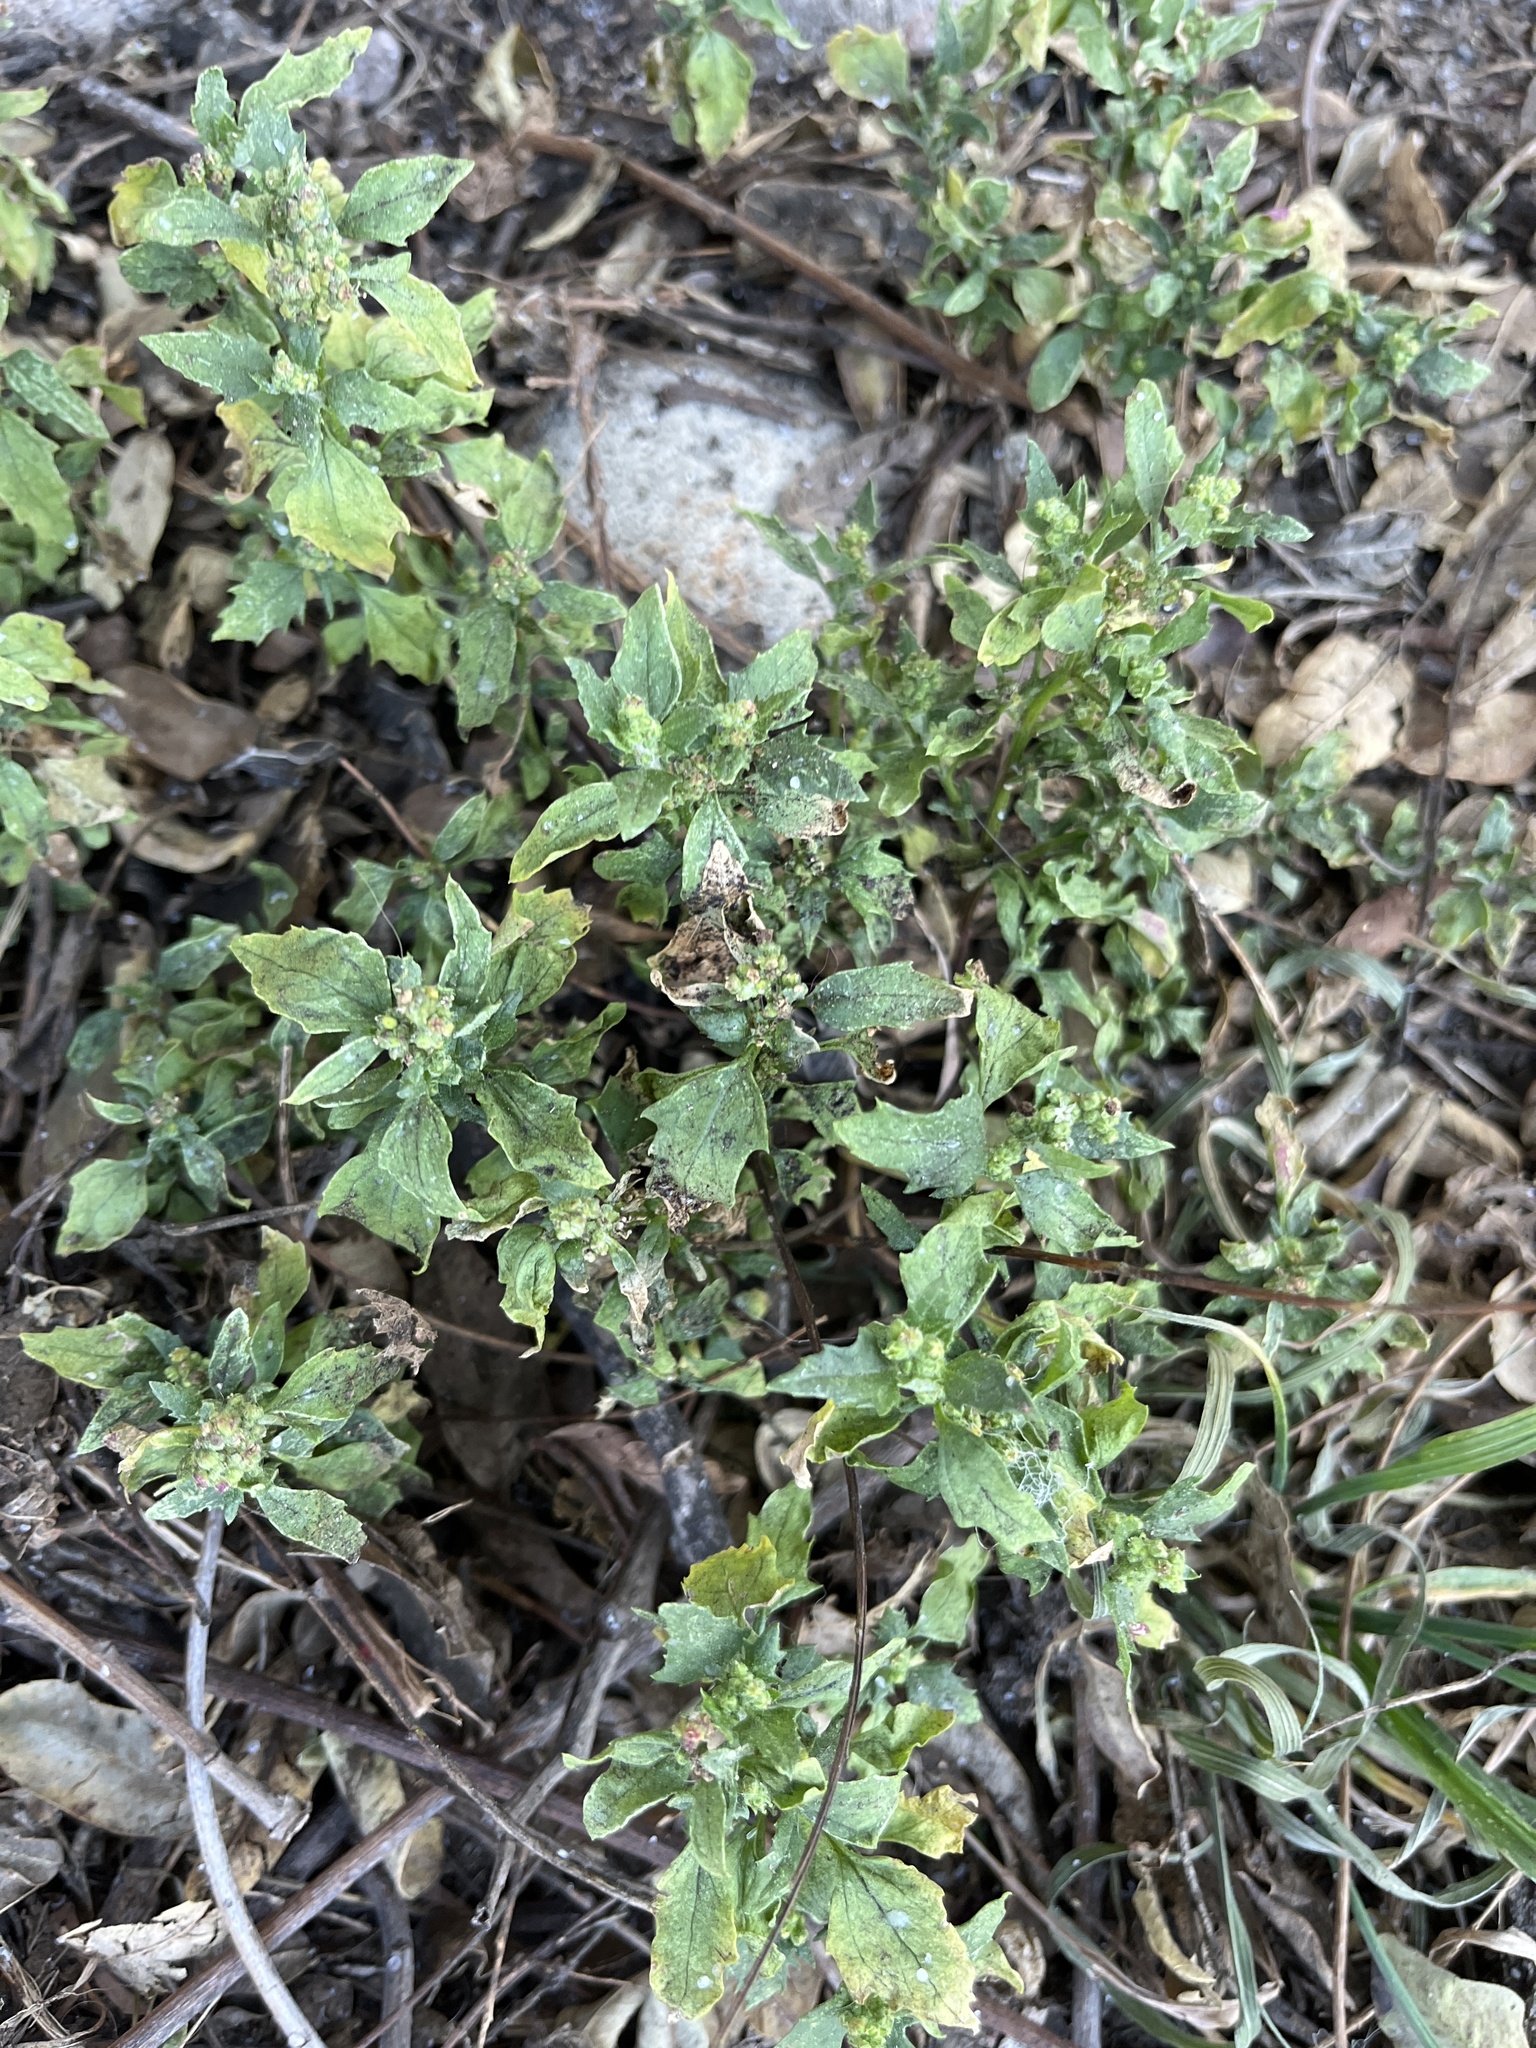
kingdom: Plantae
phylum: Tracheophyta
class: Magnoliopsida
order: Caryophyllales
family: Amaranthaceae
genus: Chenopodiastrum
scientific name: Chenopodiastrum murale
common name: Sowbane
